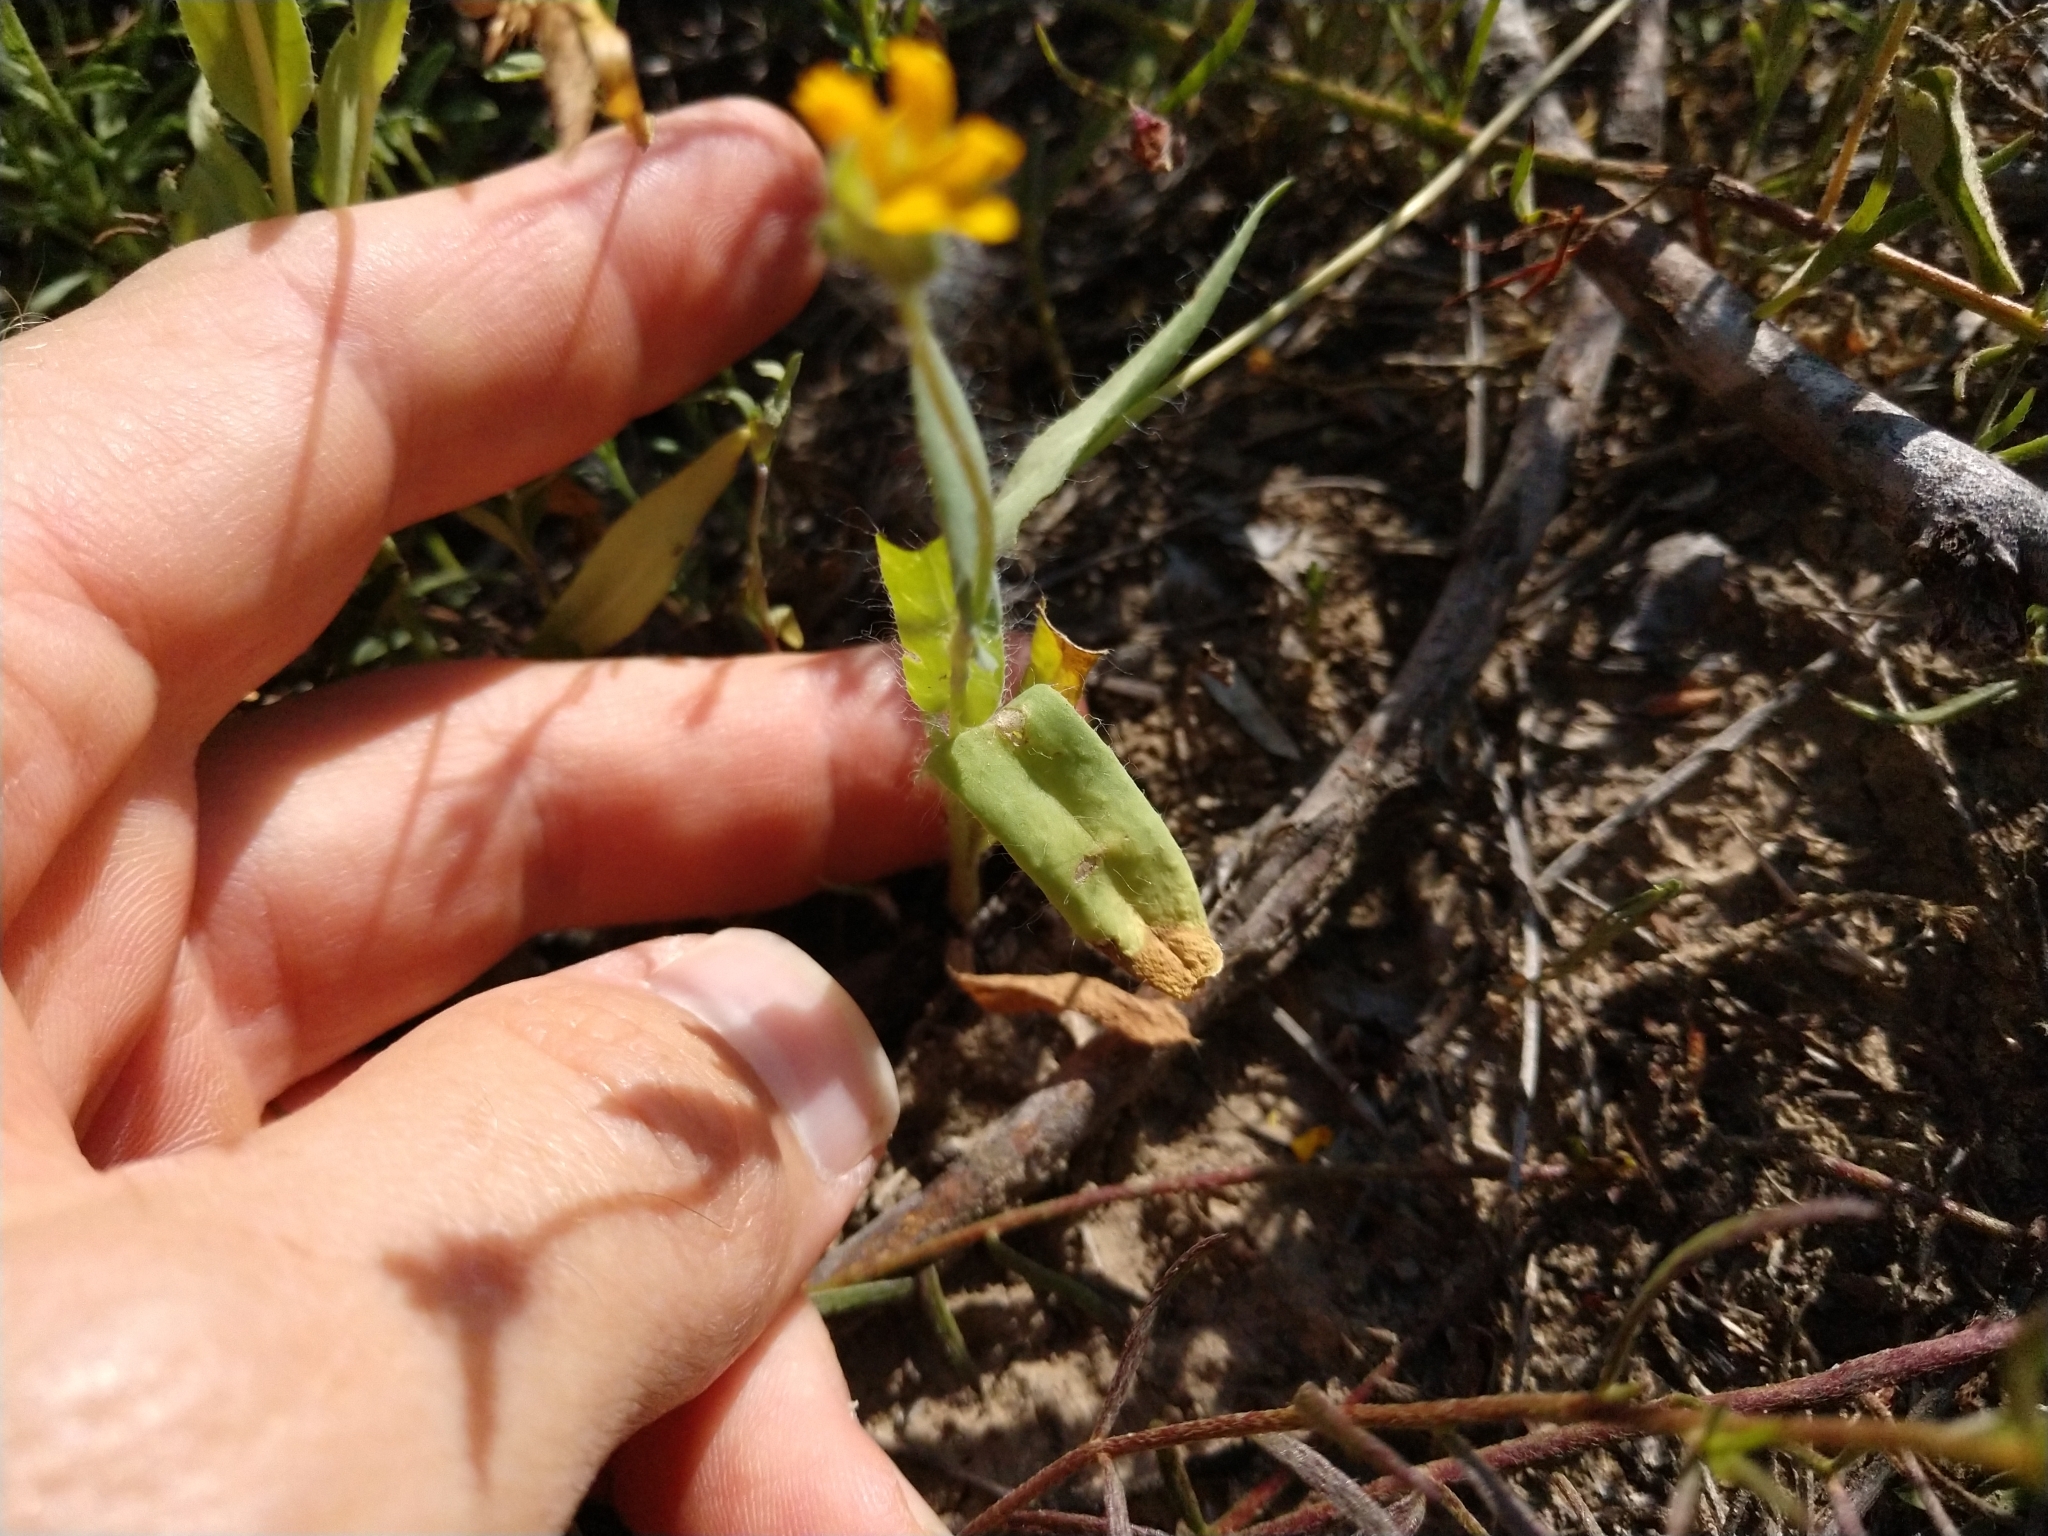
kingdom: Plantae
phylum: Tracheophyta
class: Magnoliopsida
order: Asterales
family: Asteraceae
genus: Amblyolepis
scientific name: Amblyolepis setigera
